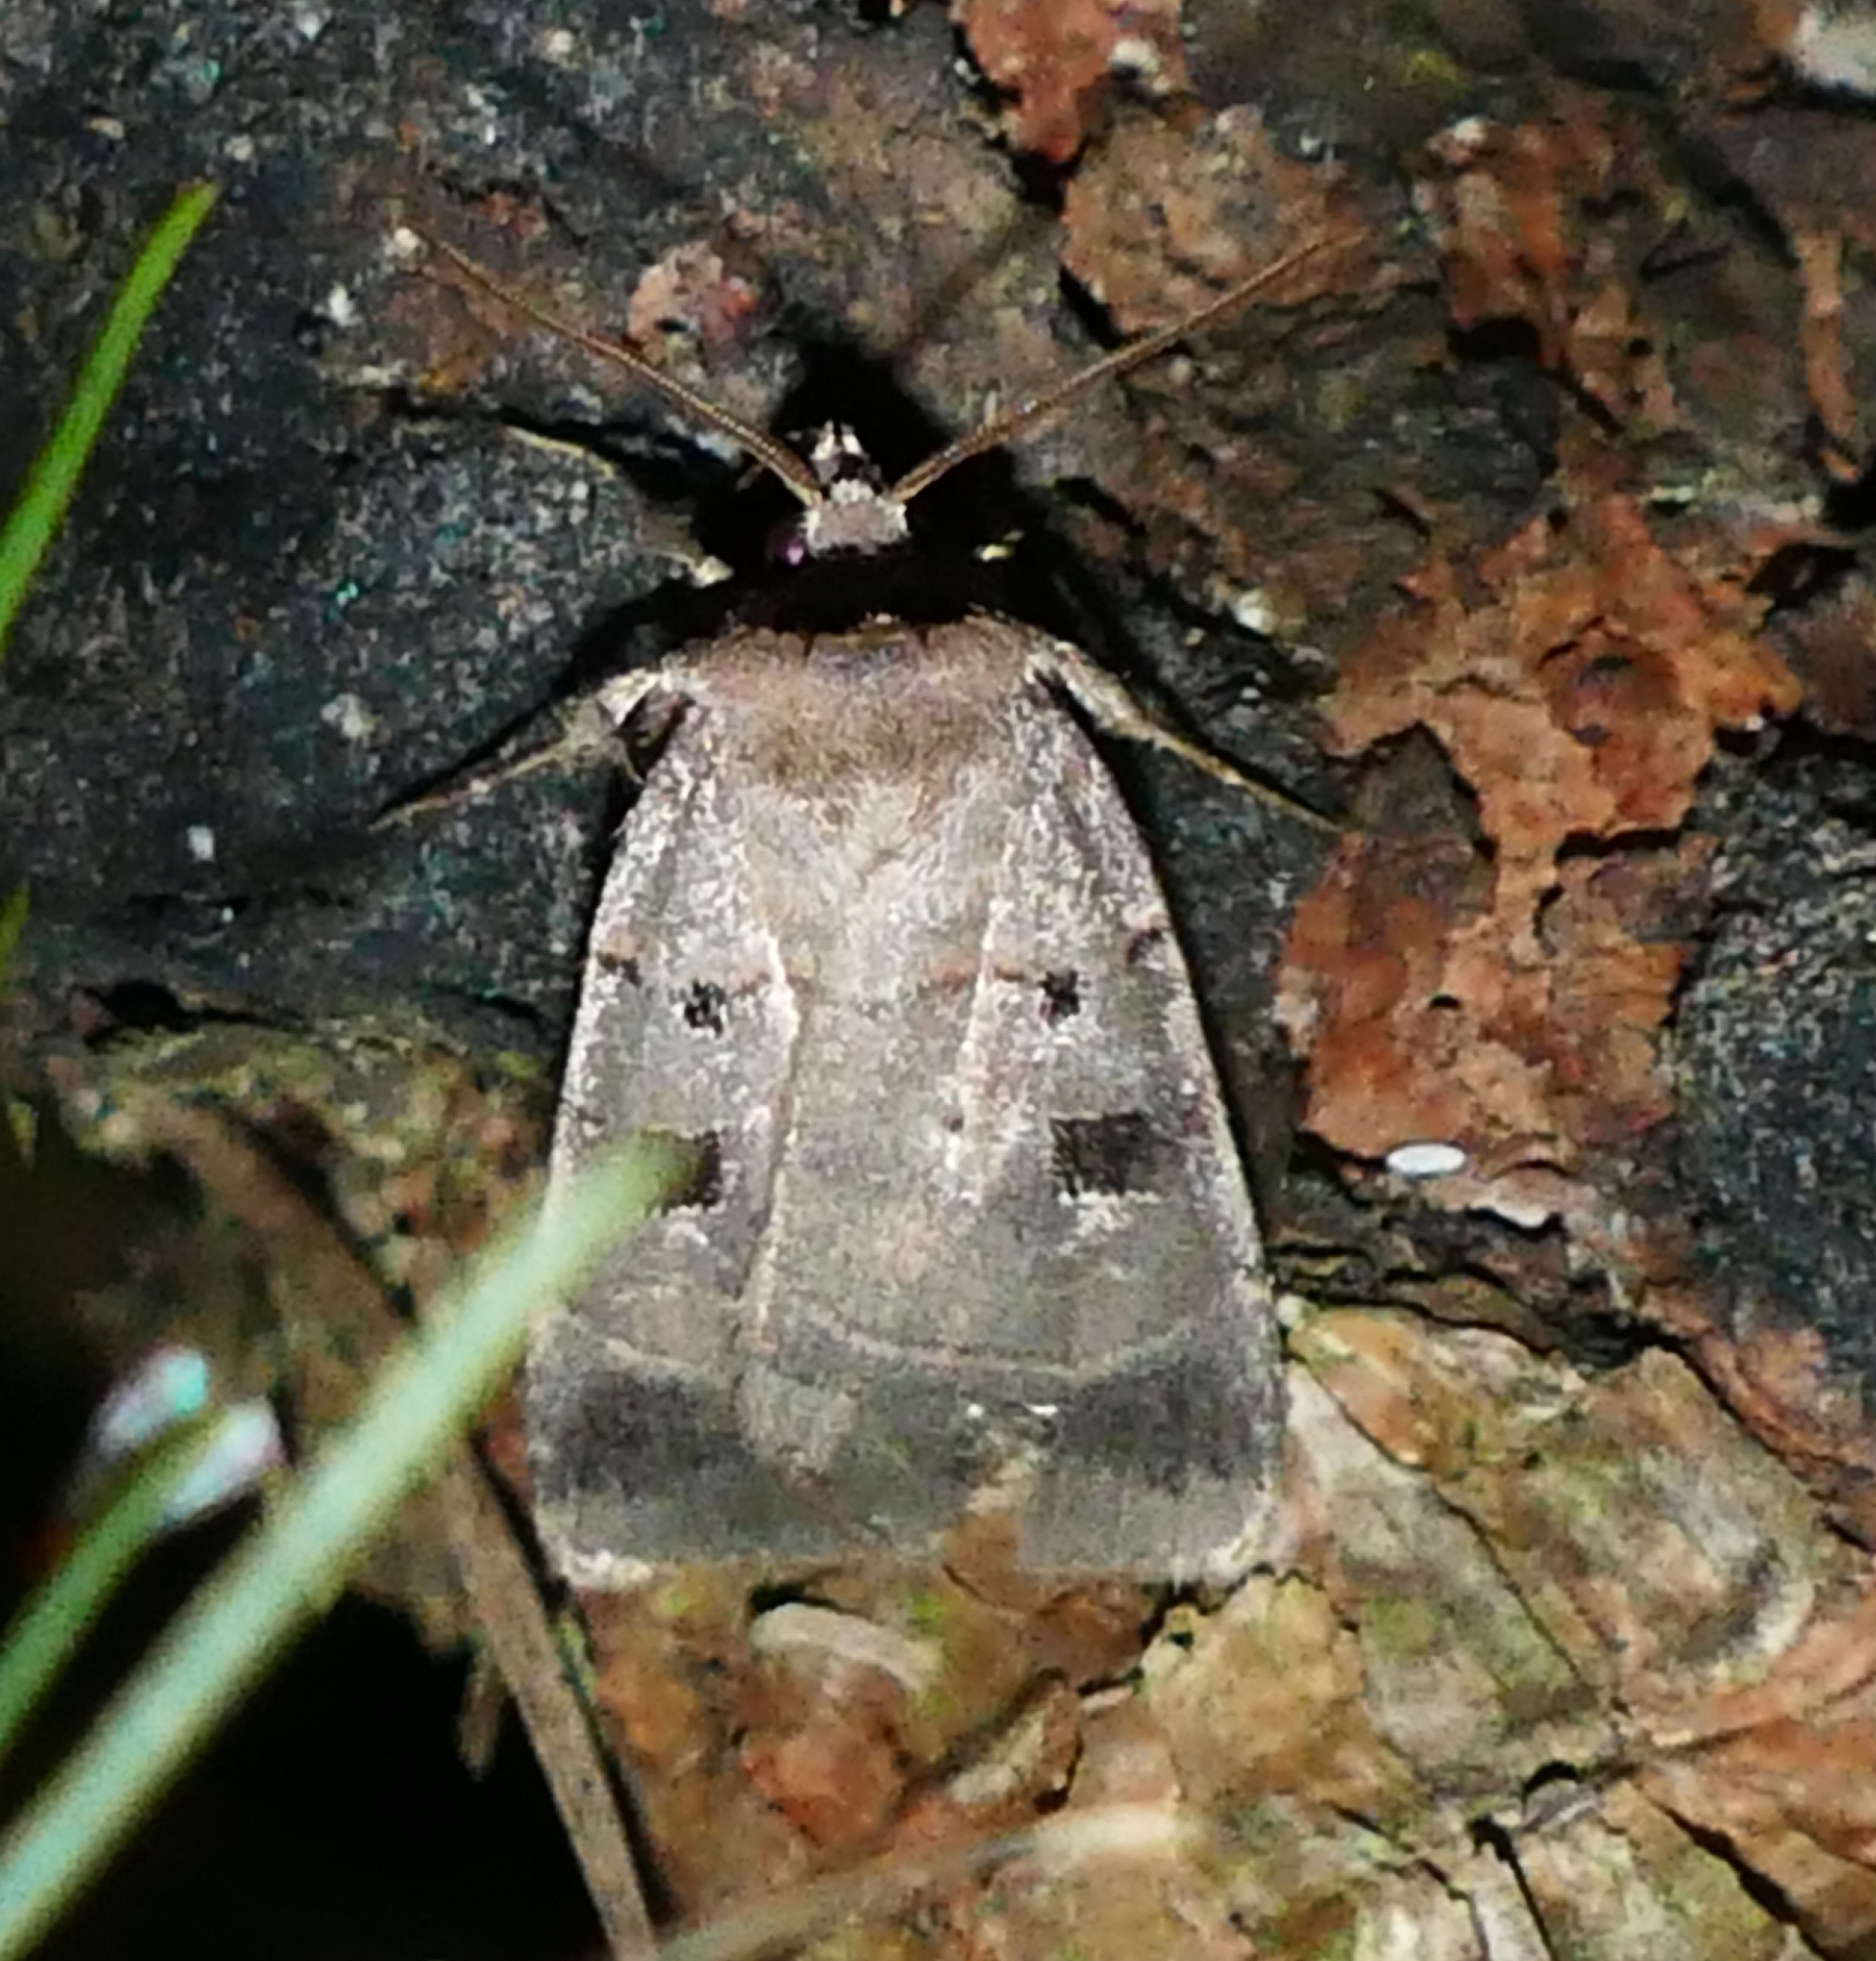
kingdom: Animalia
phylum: Arthropoda
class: Insecta
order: Lepidoptera
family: Noctuidae
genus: Agnorisma
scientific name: Agnorisma badinodis
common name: Pale-banded dart
